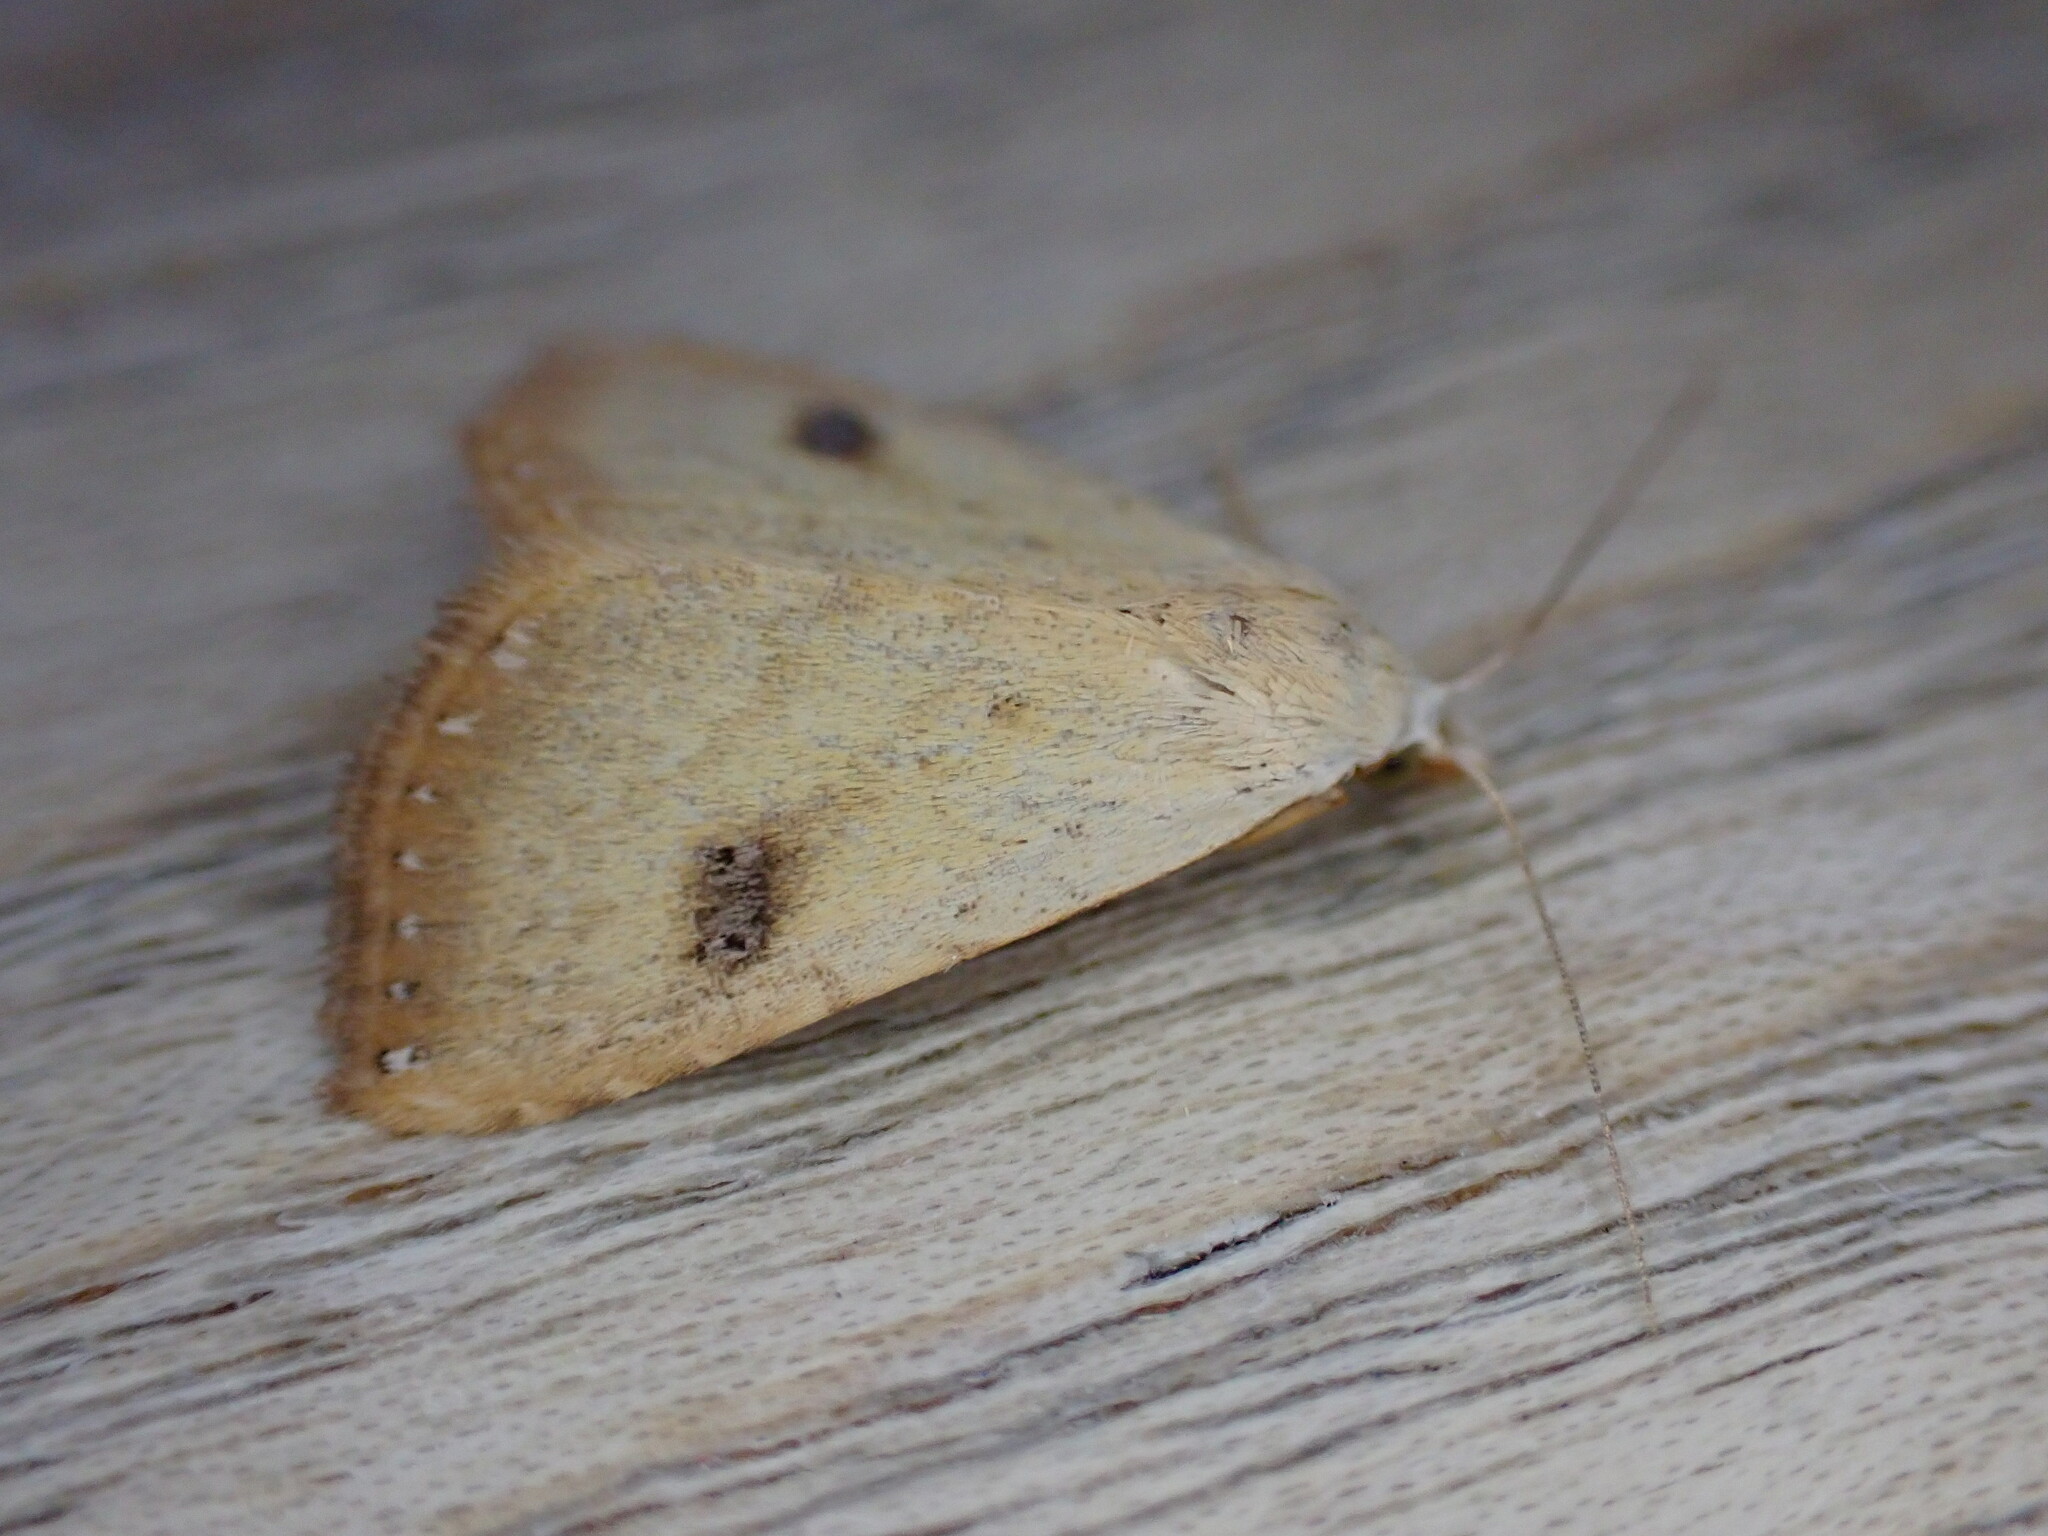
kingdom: Animalia
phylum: Arthropoda
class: Insecta
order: Lepidoptera
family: Erebidae
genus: Rivula
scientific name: Rivula sericealis
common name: Straw dot
